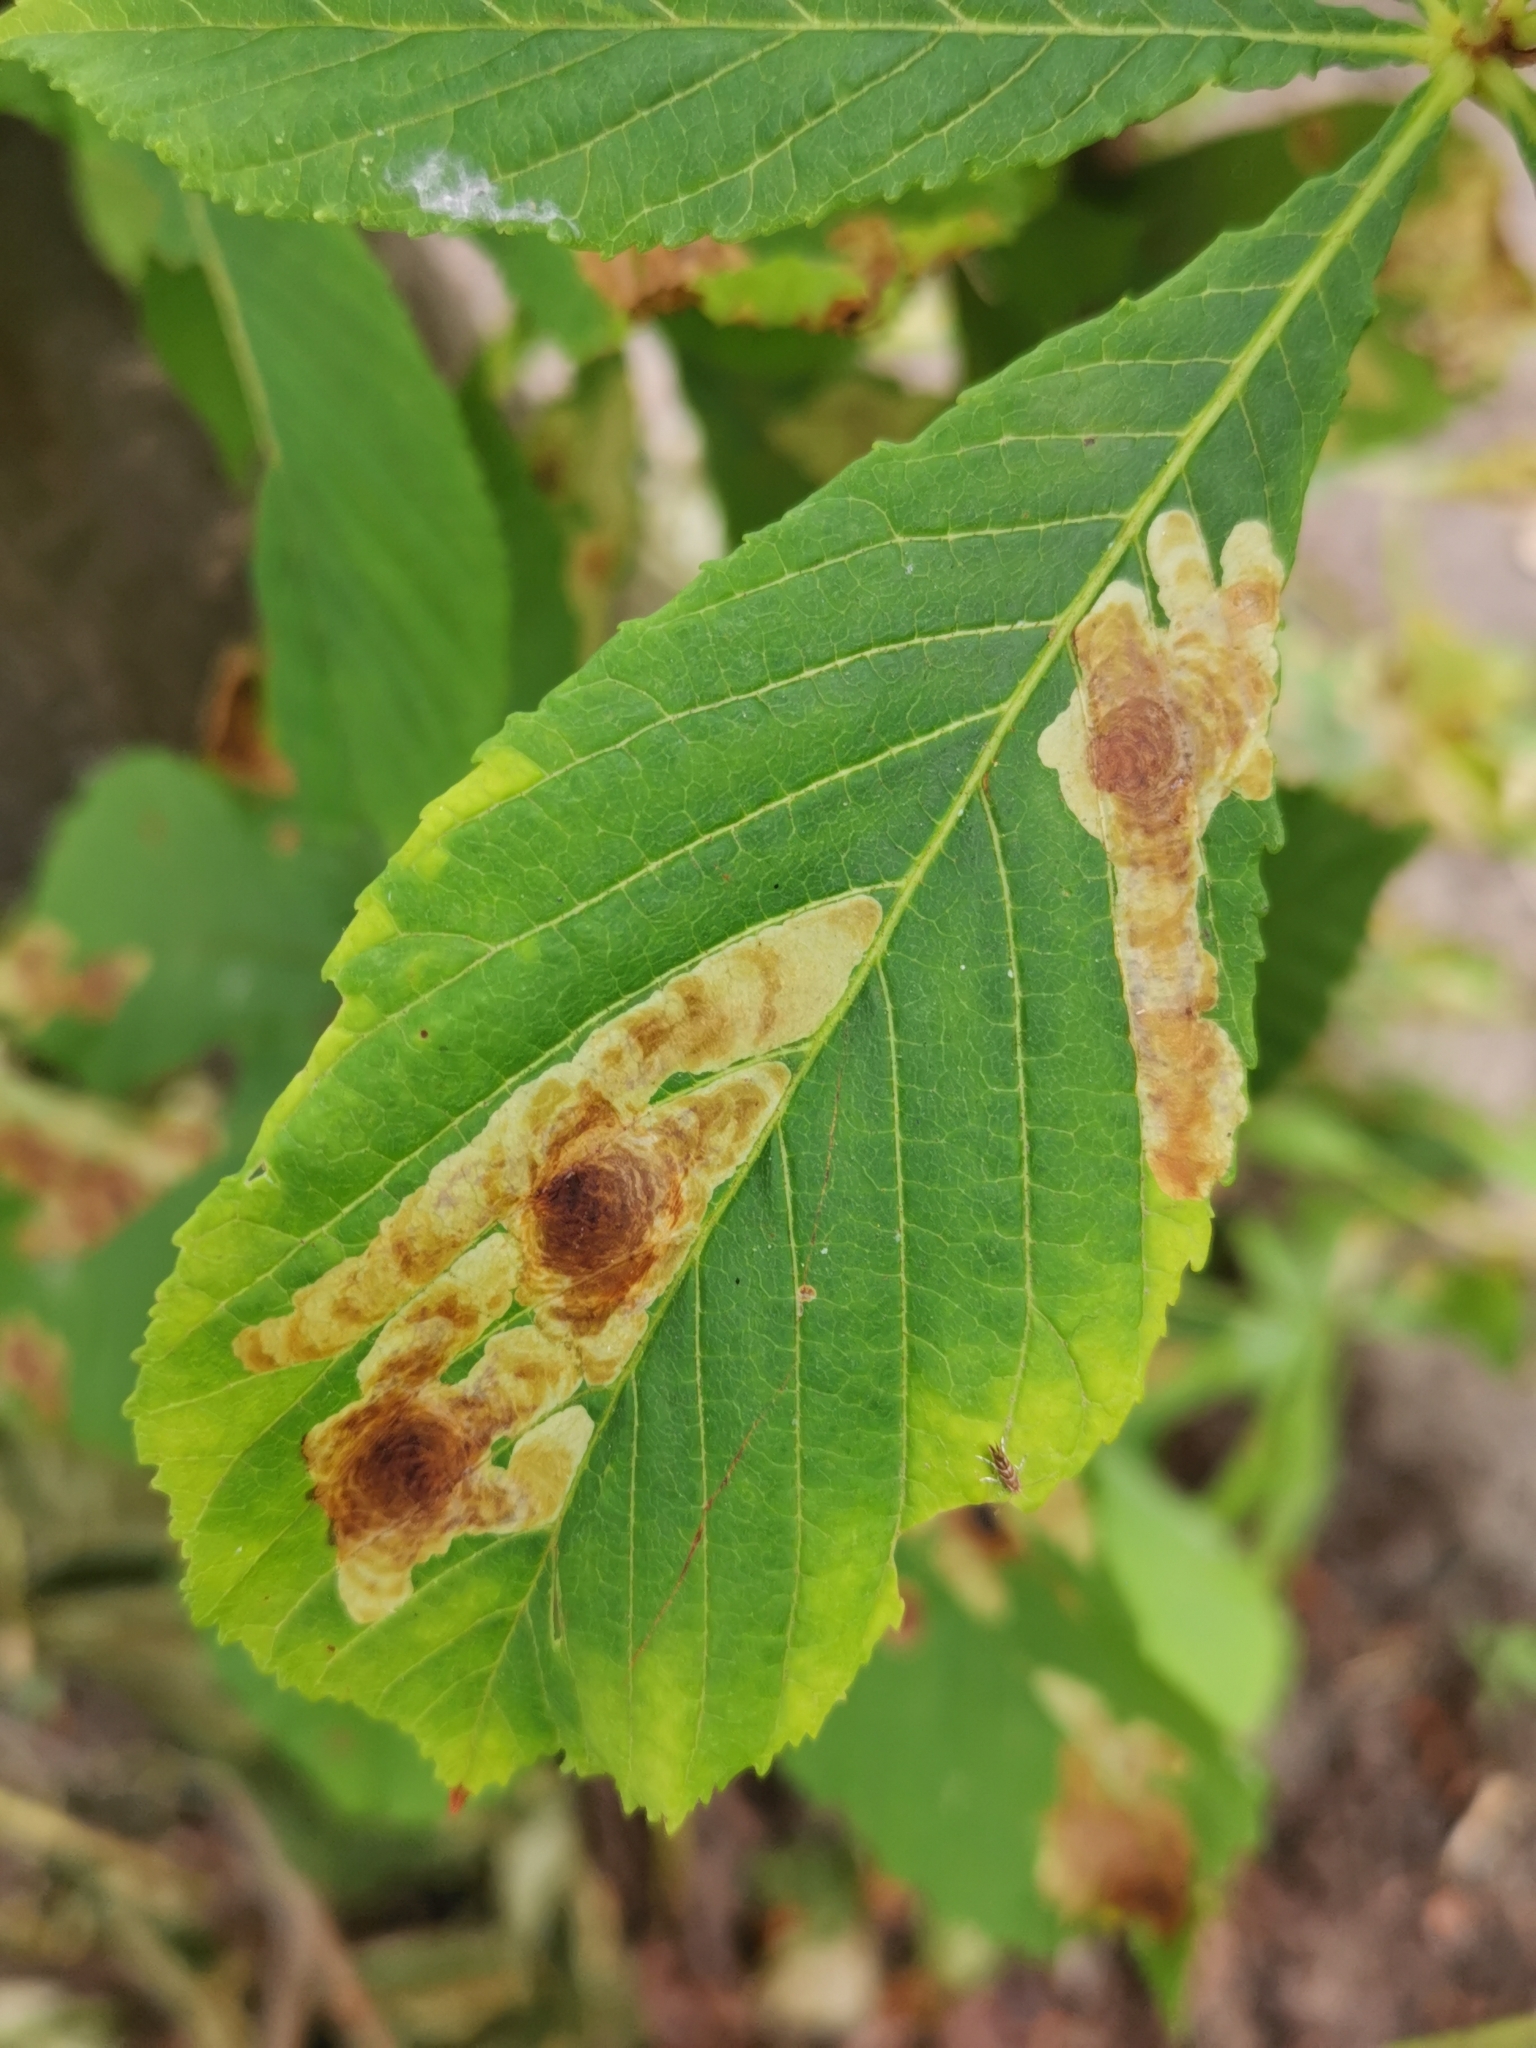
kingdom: Animalia
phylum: Arthropoda
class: Insecta
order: Lepidoptera
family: Gracillariidae
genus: Cameraria
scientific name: Cameraria ohridella
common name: Horse-chestnut leaf-miner
